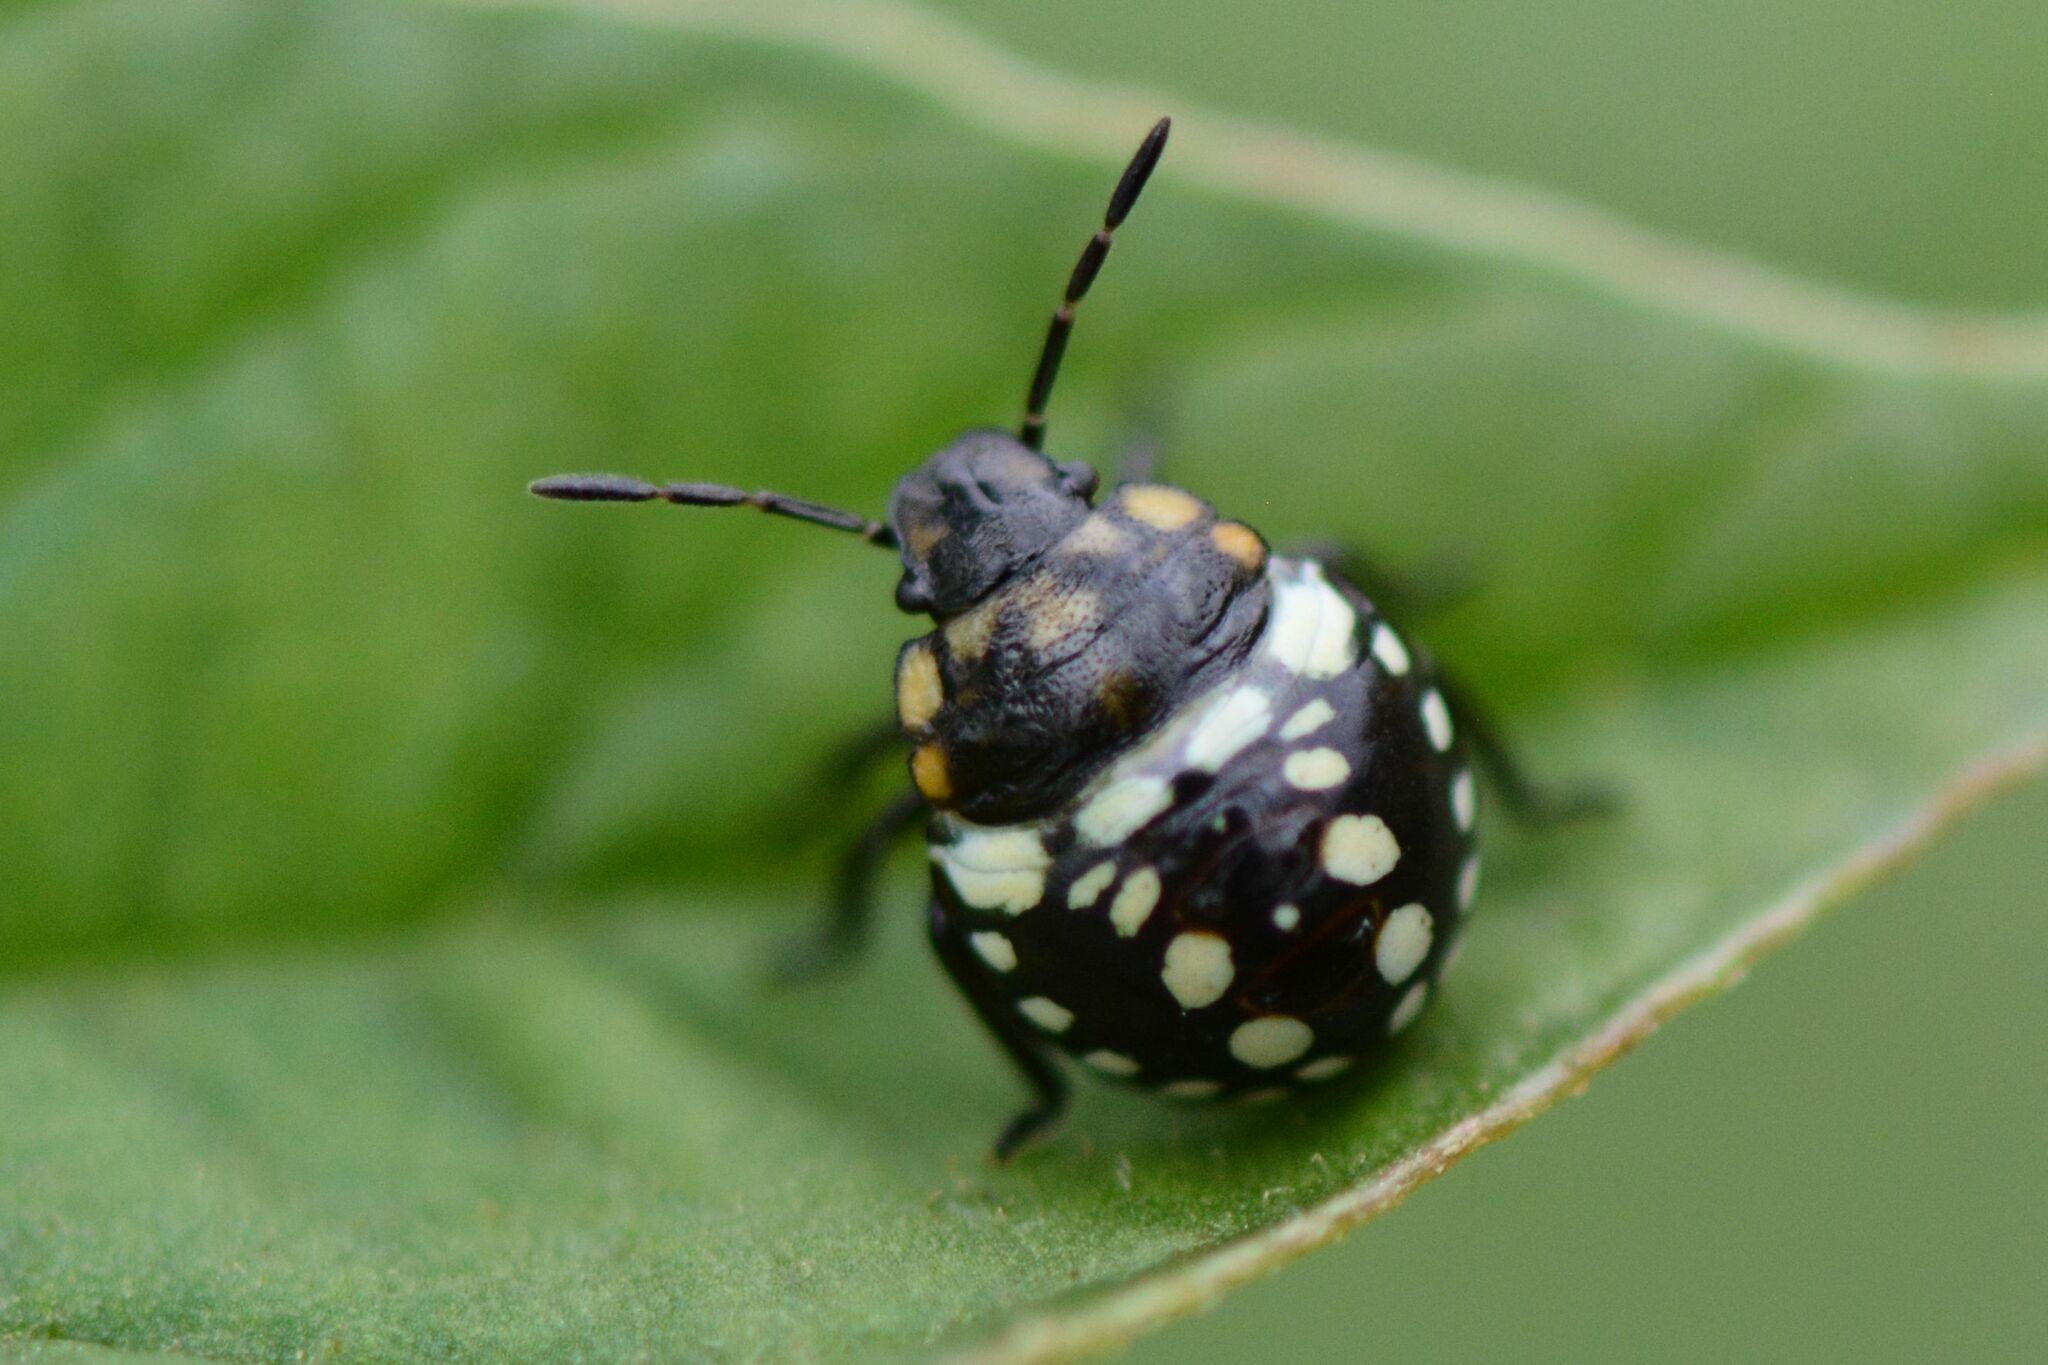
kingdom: Animalia
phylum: Arthropoda
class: Insecta
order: Hemiptera
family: Pentatomidae
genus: Nezara
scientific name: Nezara viridula
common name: Southern green stink bug
